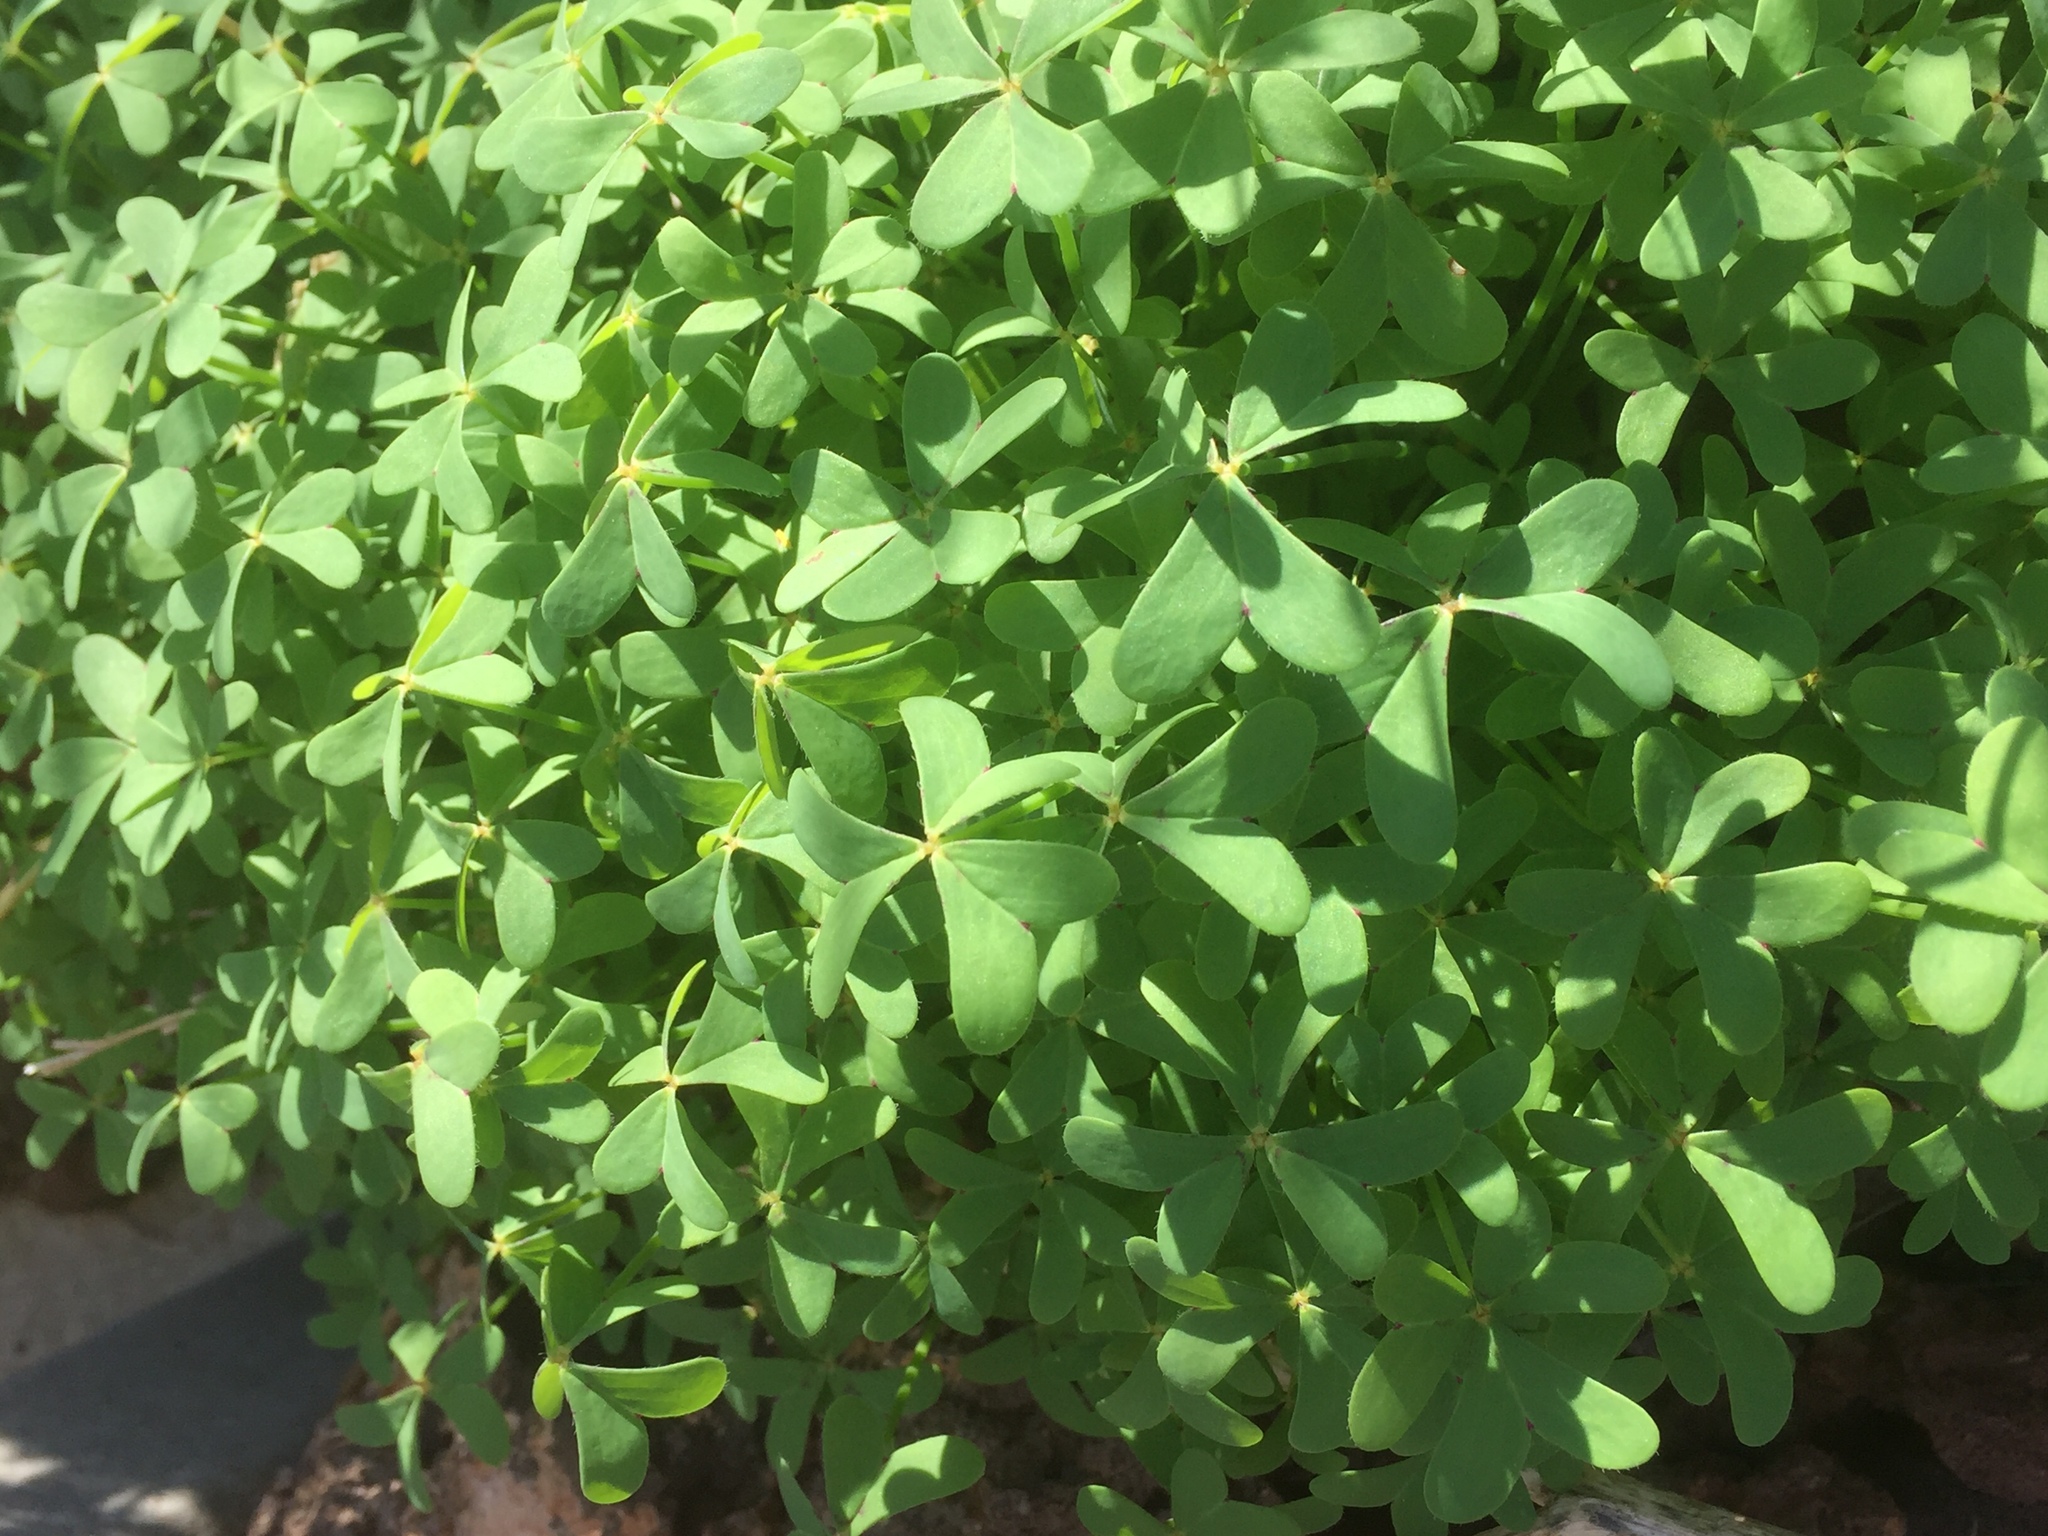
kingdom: Plantae
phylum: Tracheophyta
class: Magnoliopsida
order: Oxalidales
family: Oxalidaceae
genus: Oxalis
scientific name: Oxalis pes-caprae
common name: Bermuda-buttercup
